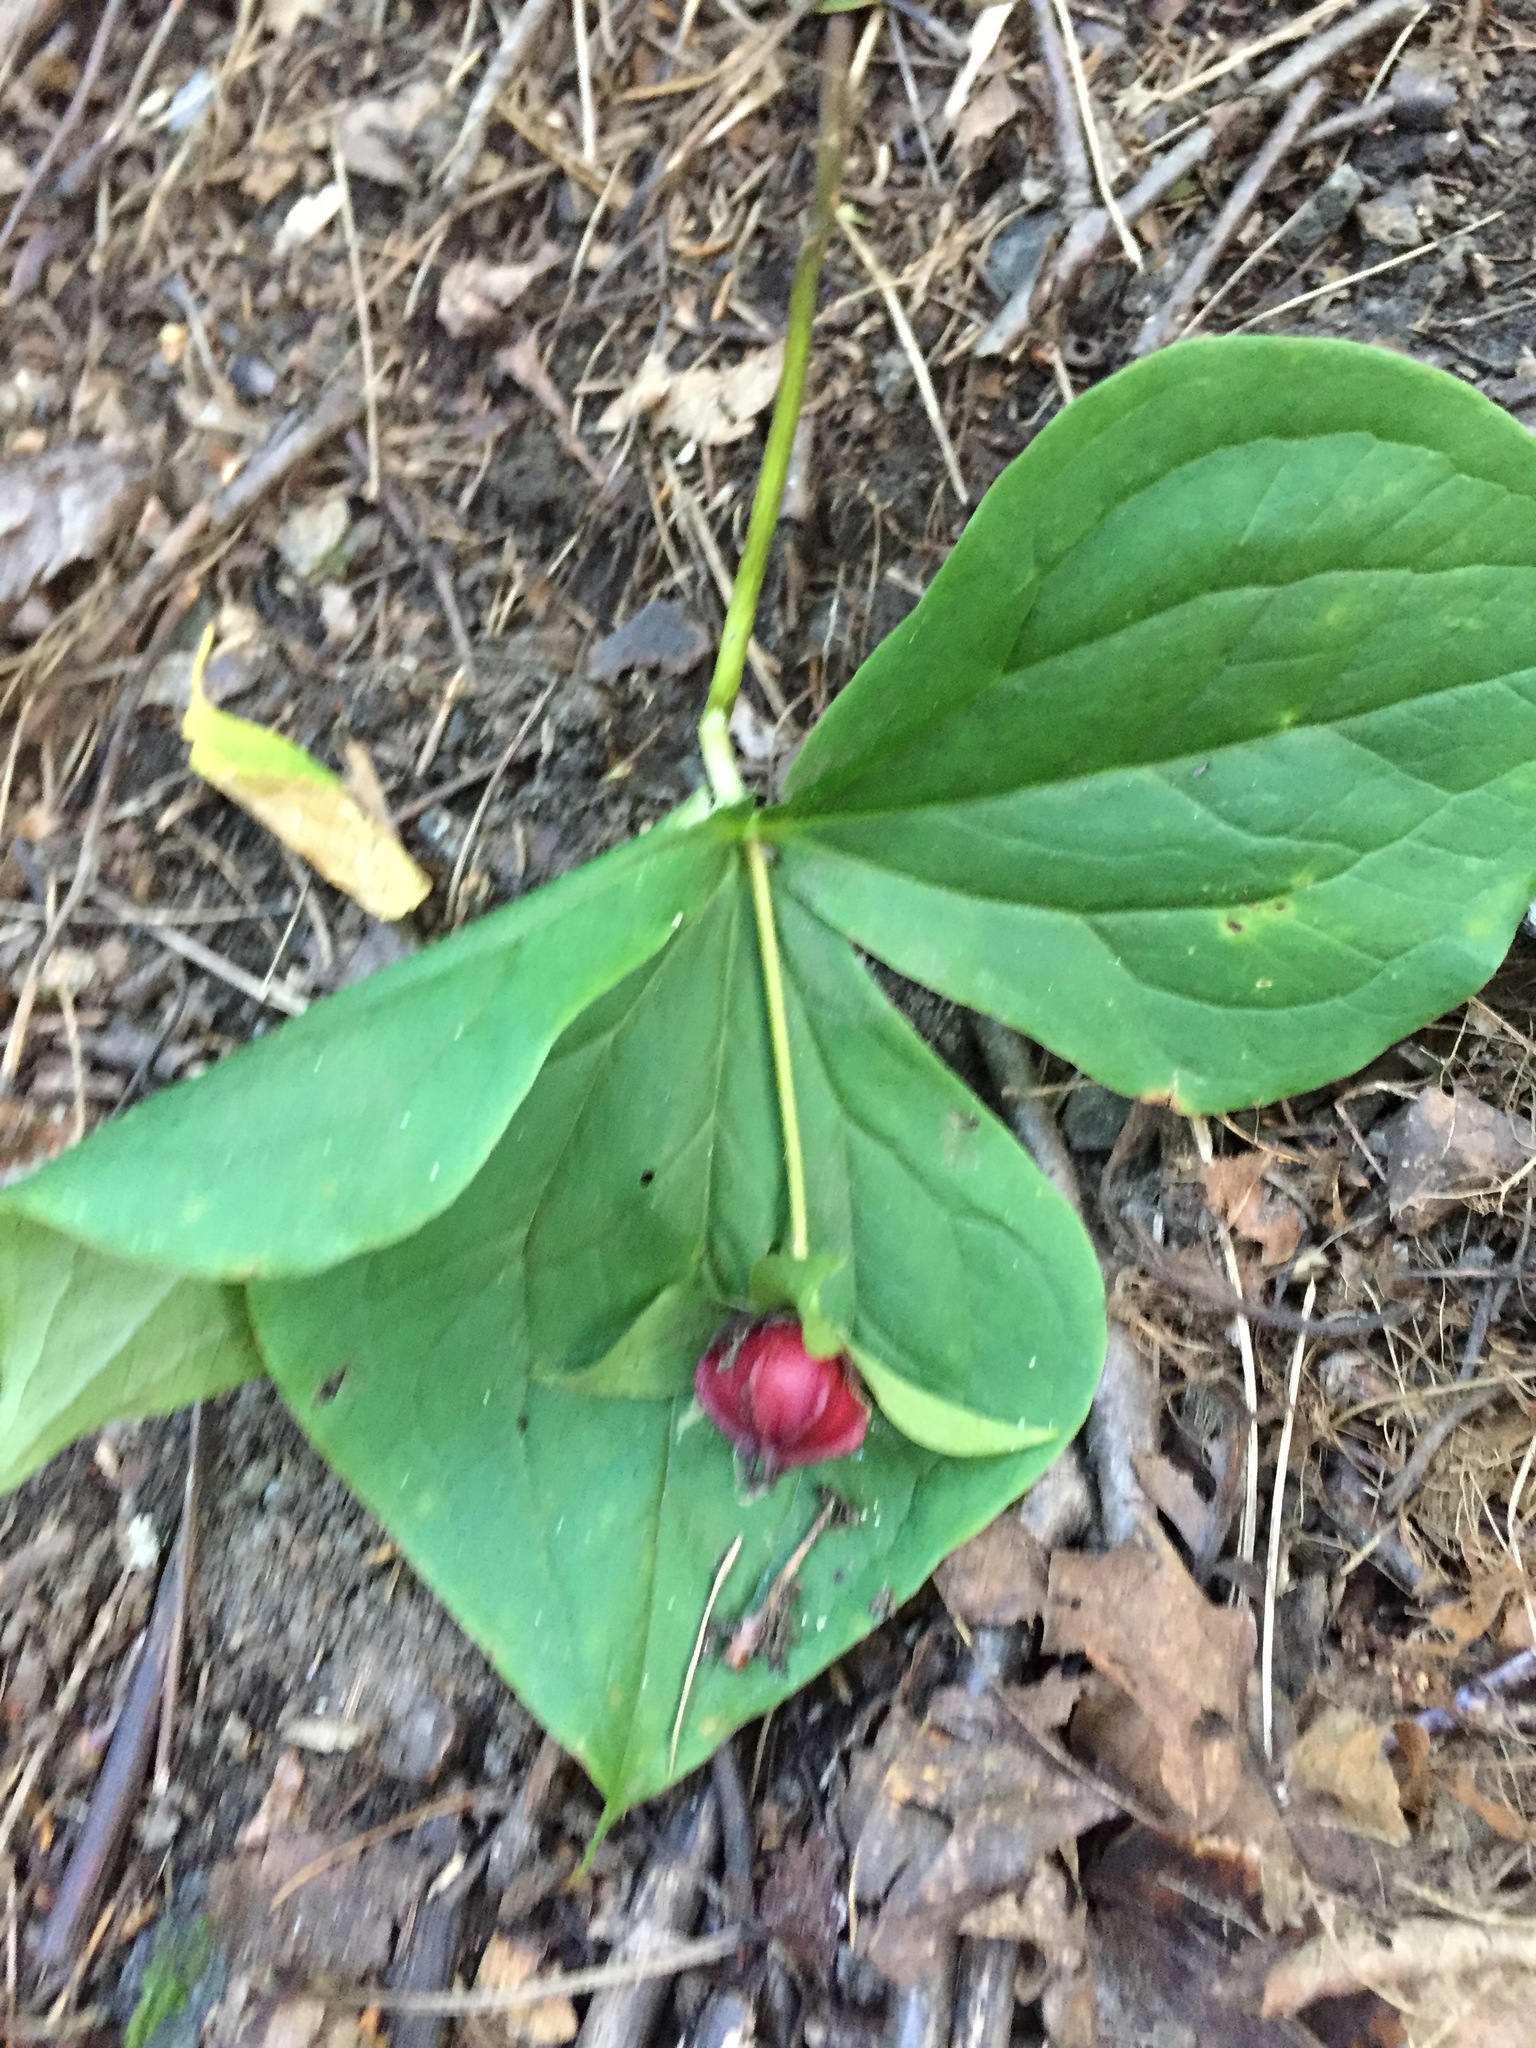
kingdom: Plantae
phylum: Tracheophyta
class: Liliopsida
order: Liliales
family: Melanthiaceae
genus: Trillium
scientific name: Trillium erectum
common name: Purple trillium
